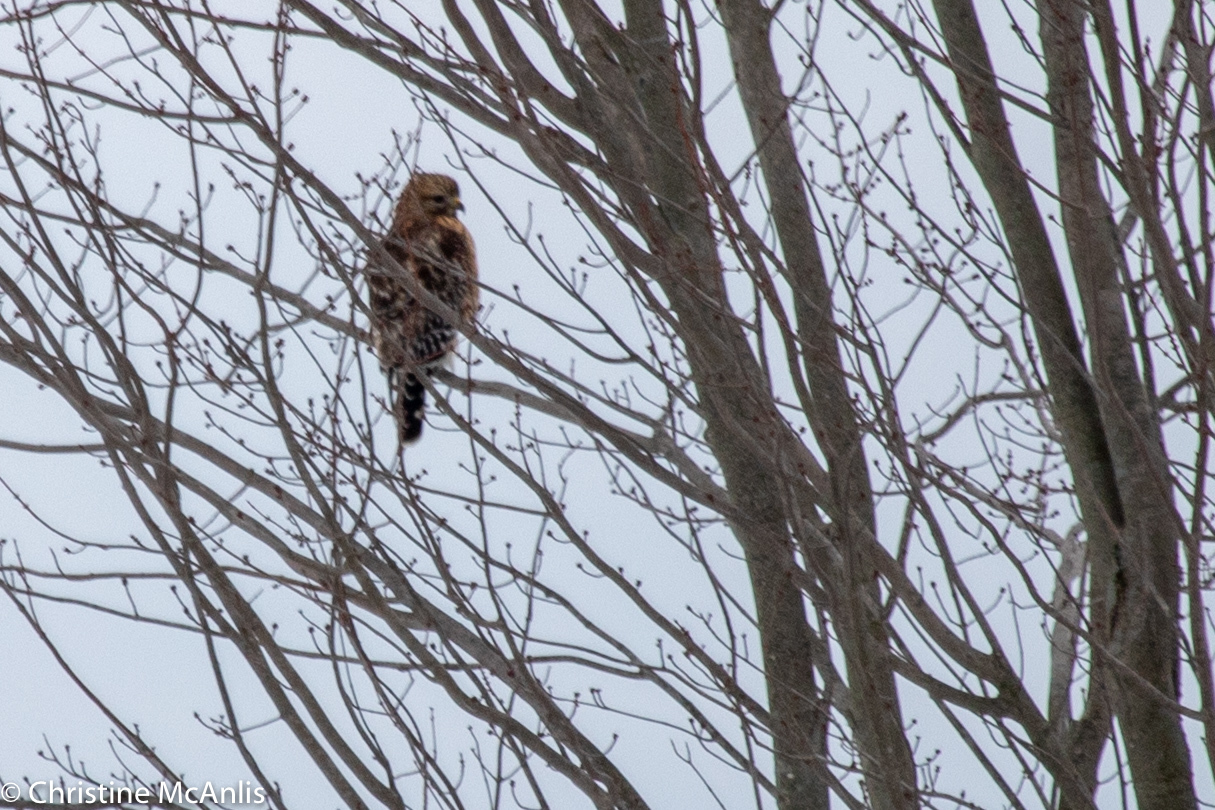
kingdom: Animalia
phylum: Chordata
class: Aves
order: Accipitriformes
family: Accipitridae
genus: Buteo
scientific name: Buteo lineatus
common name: Red-shouldered hawk
